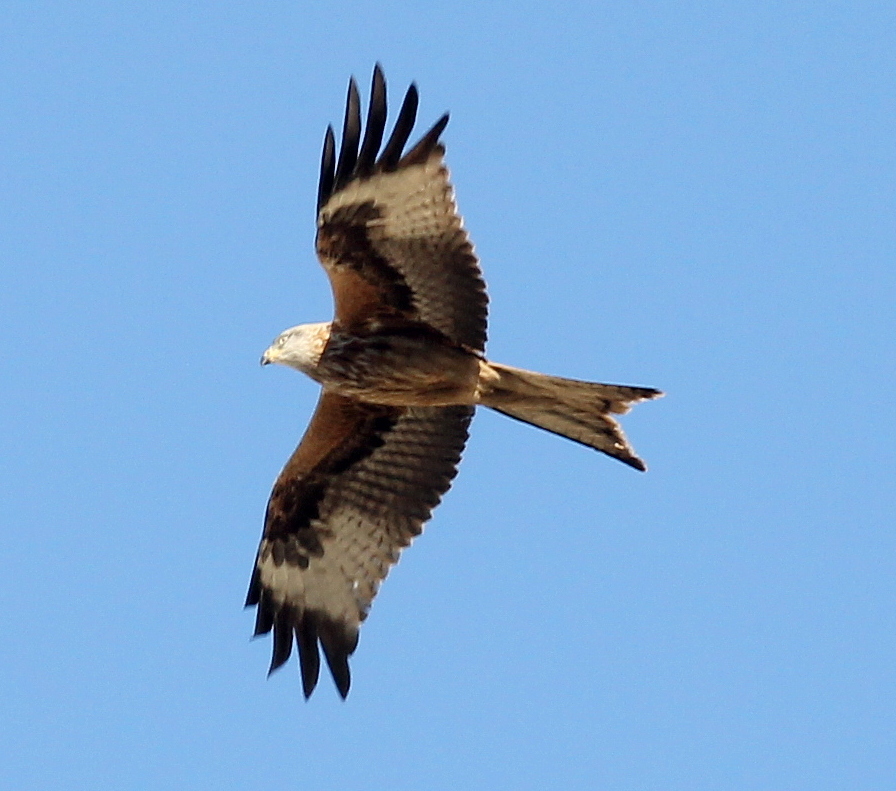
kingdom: Animalia
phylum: Chordata
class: Aves
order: Accipitriformes
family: Accipitridae
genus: Milvus
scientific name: Milvus milvus
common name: Red kite
